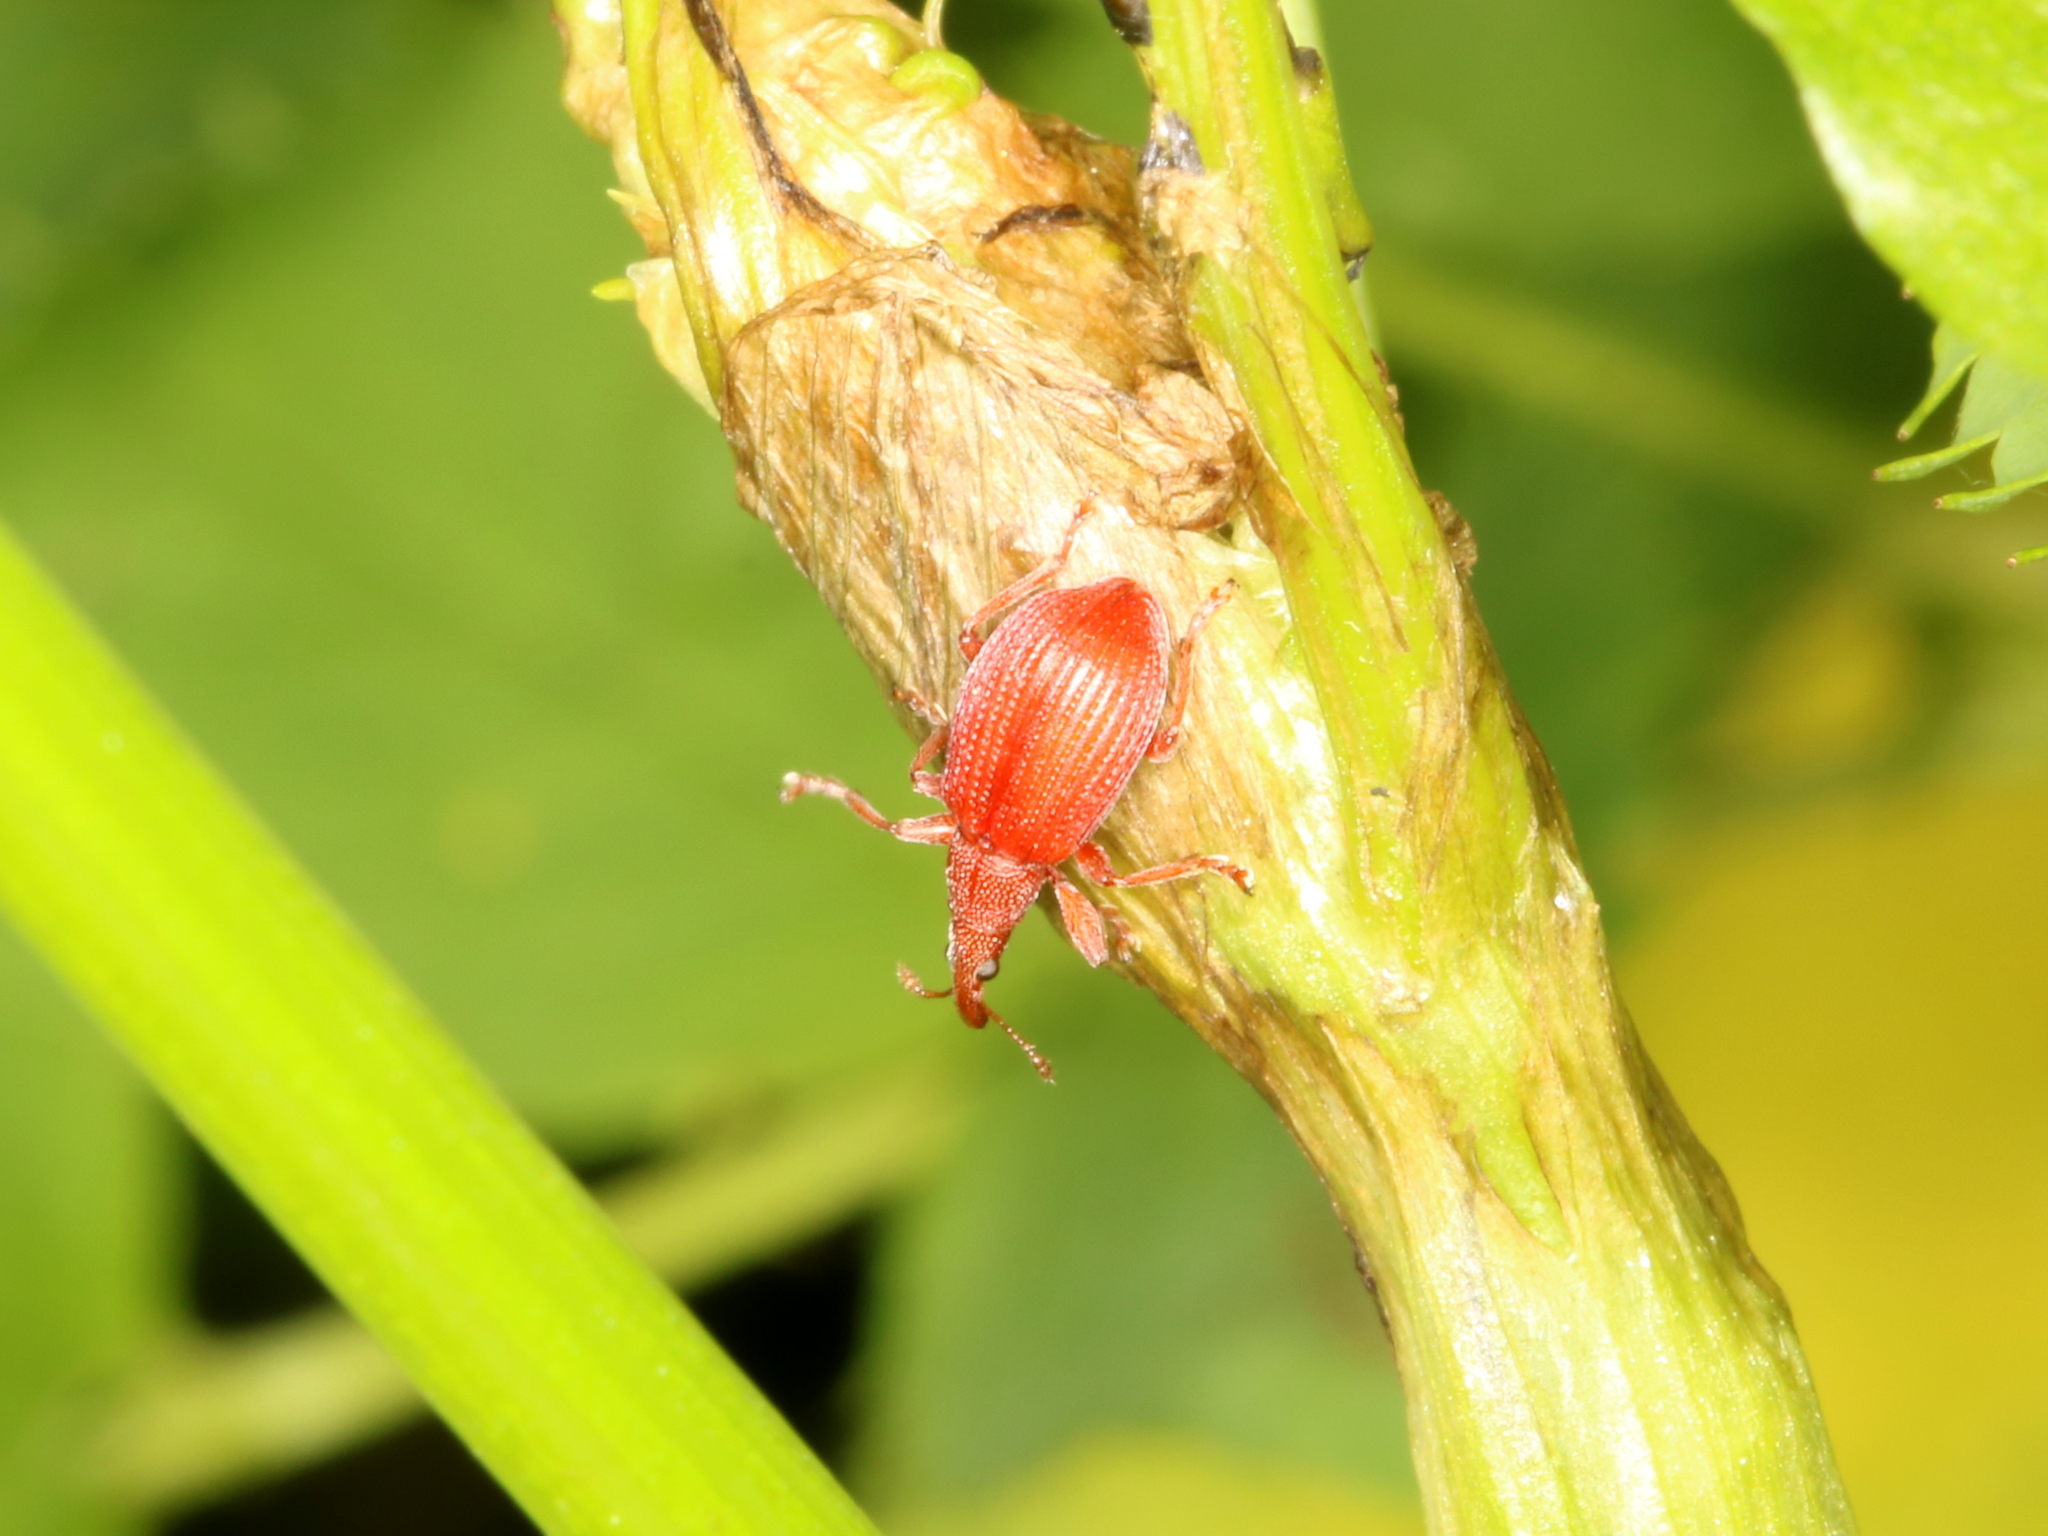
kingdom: Animalia
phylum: Arthropoda
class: Insecta
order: Coleoptera
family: Apionidae
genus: Apion
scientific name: Apion frumentarium
